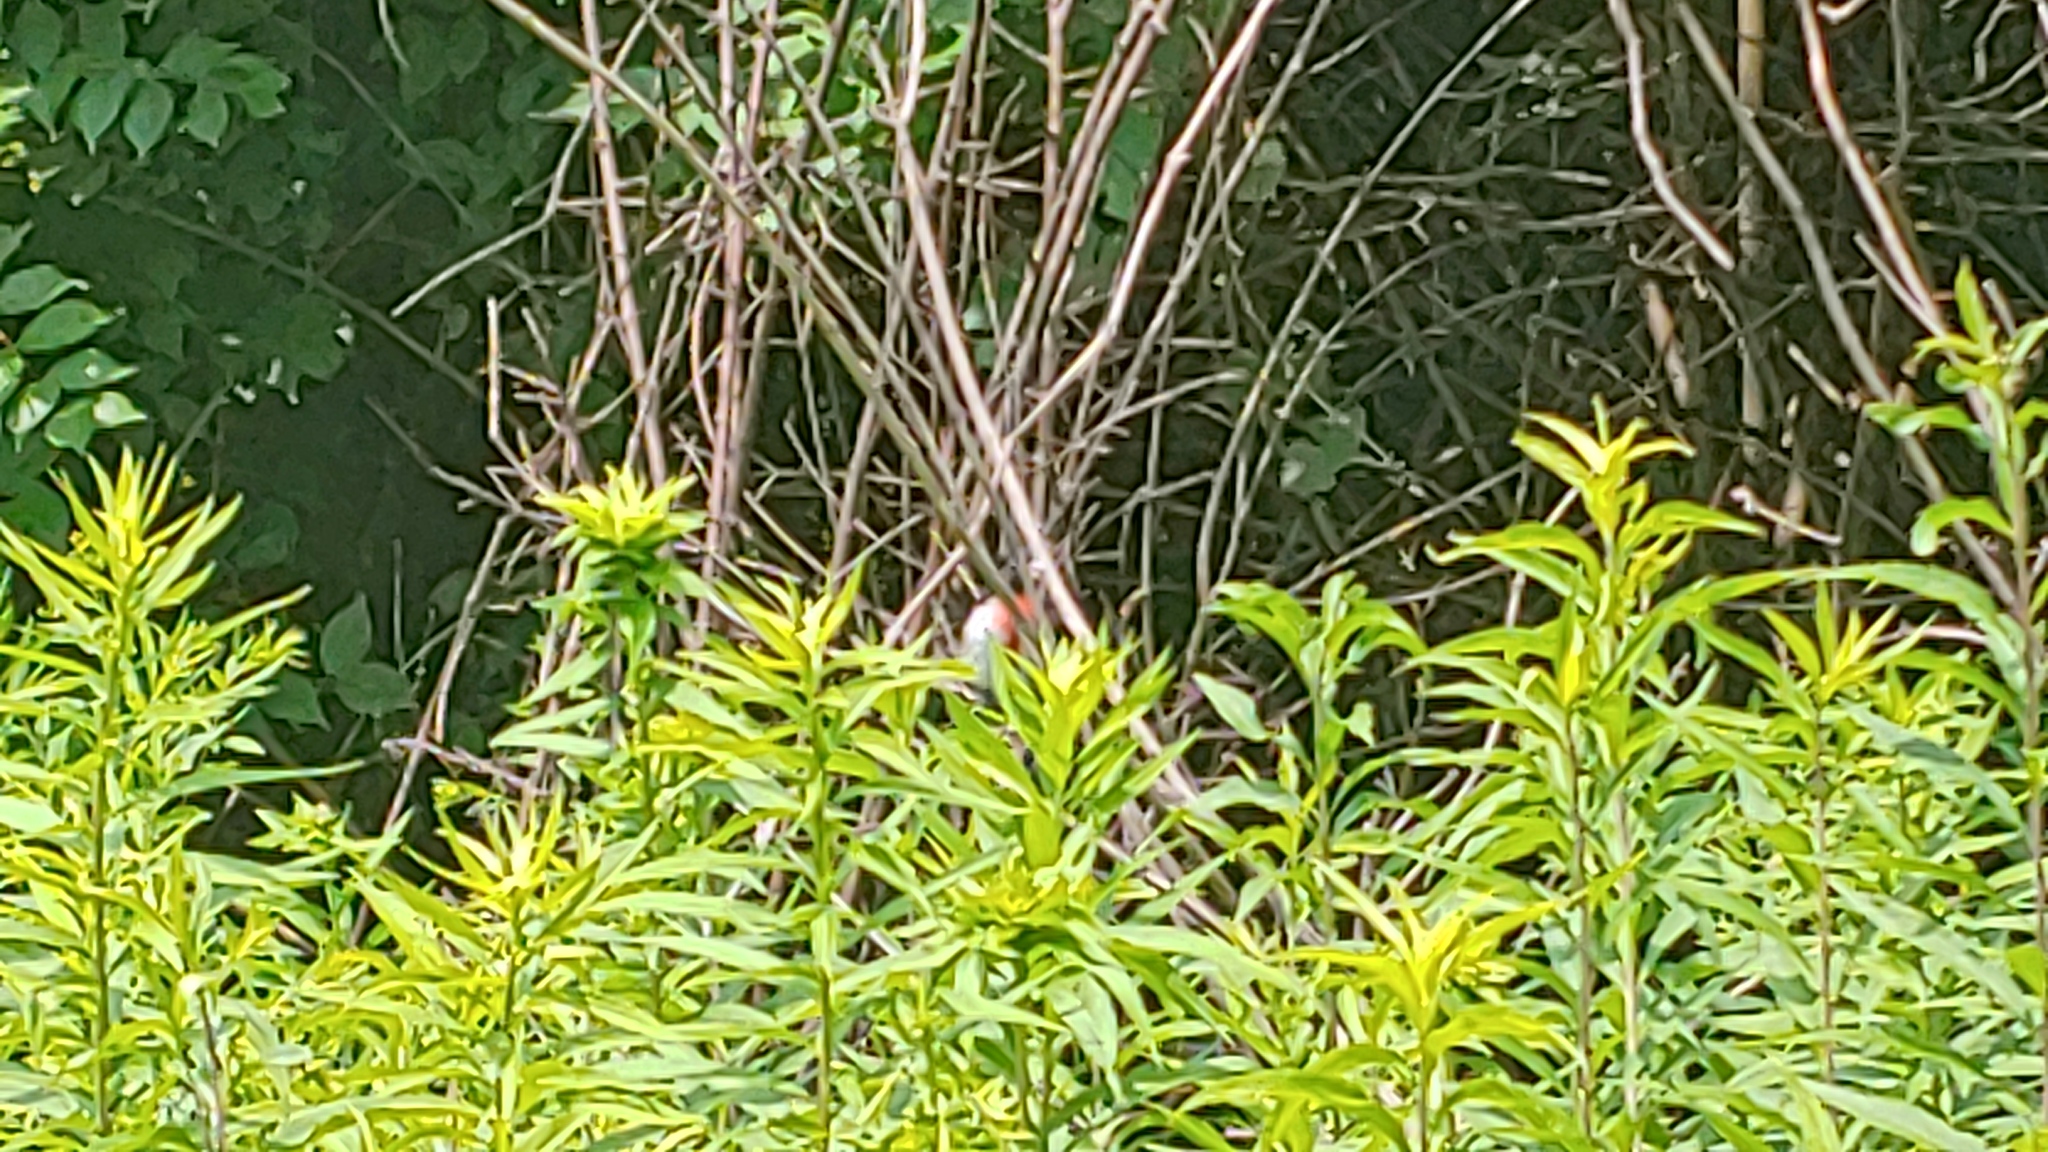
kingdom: Animalia
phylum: Chordata
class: Aves
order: Passeriformes
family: Cardinalidae
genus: Pheucticus
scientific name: Pheucticus ludovicianus
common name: Rose-breasted grosbeak
